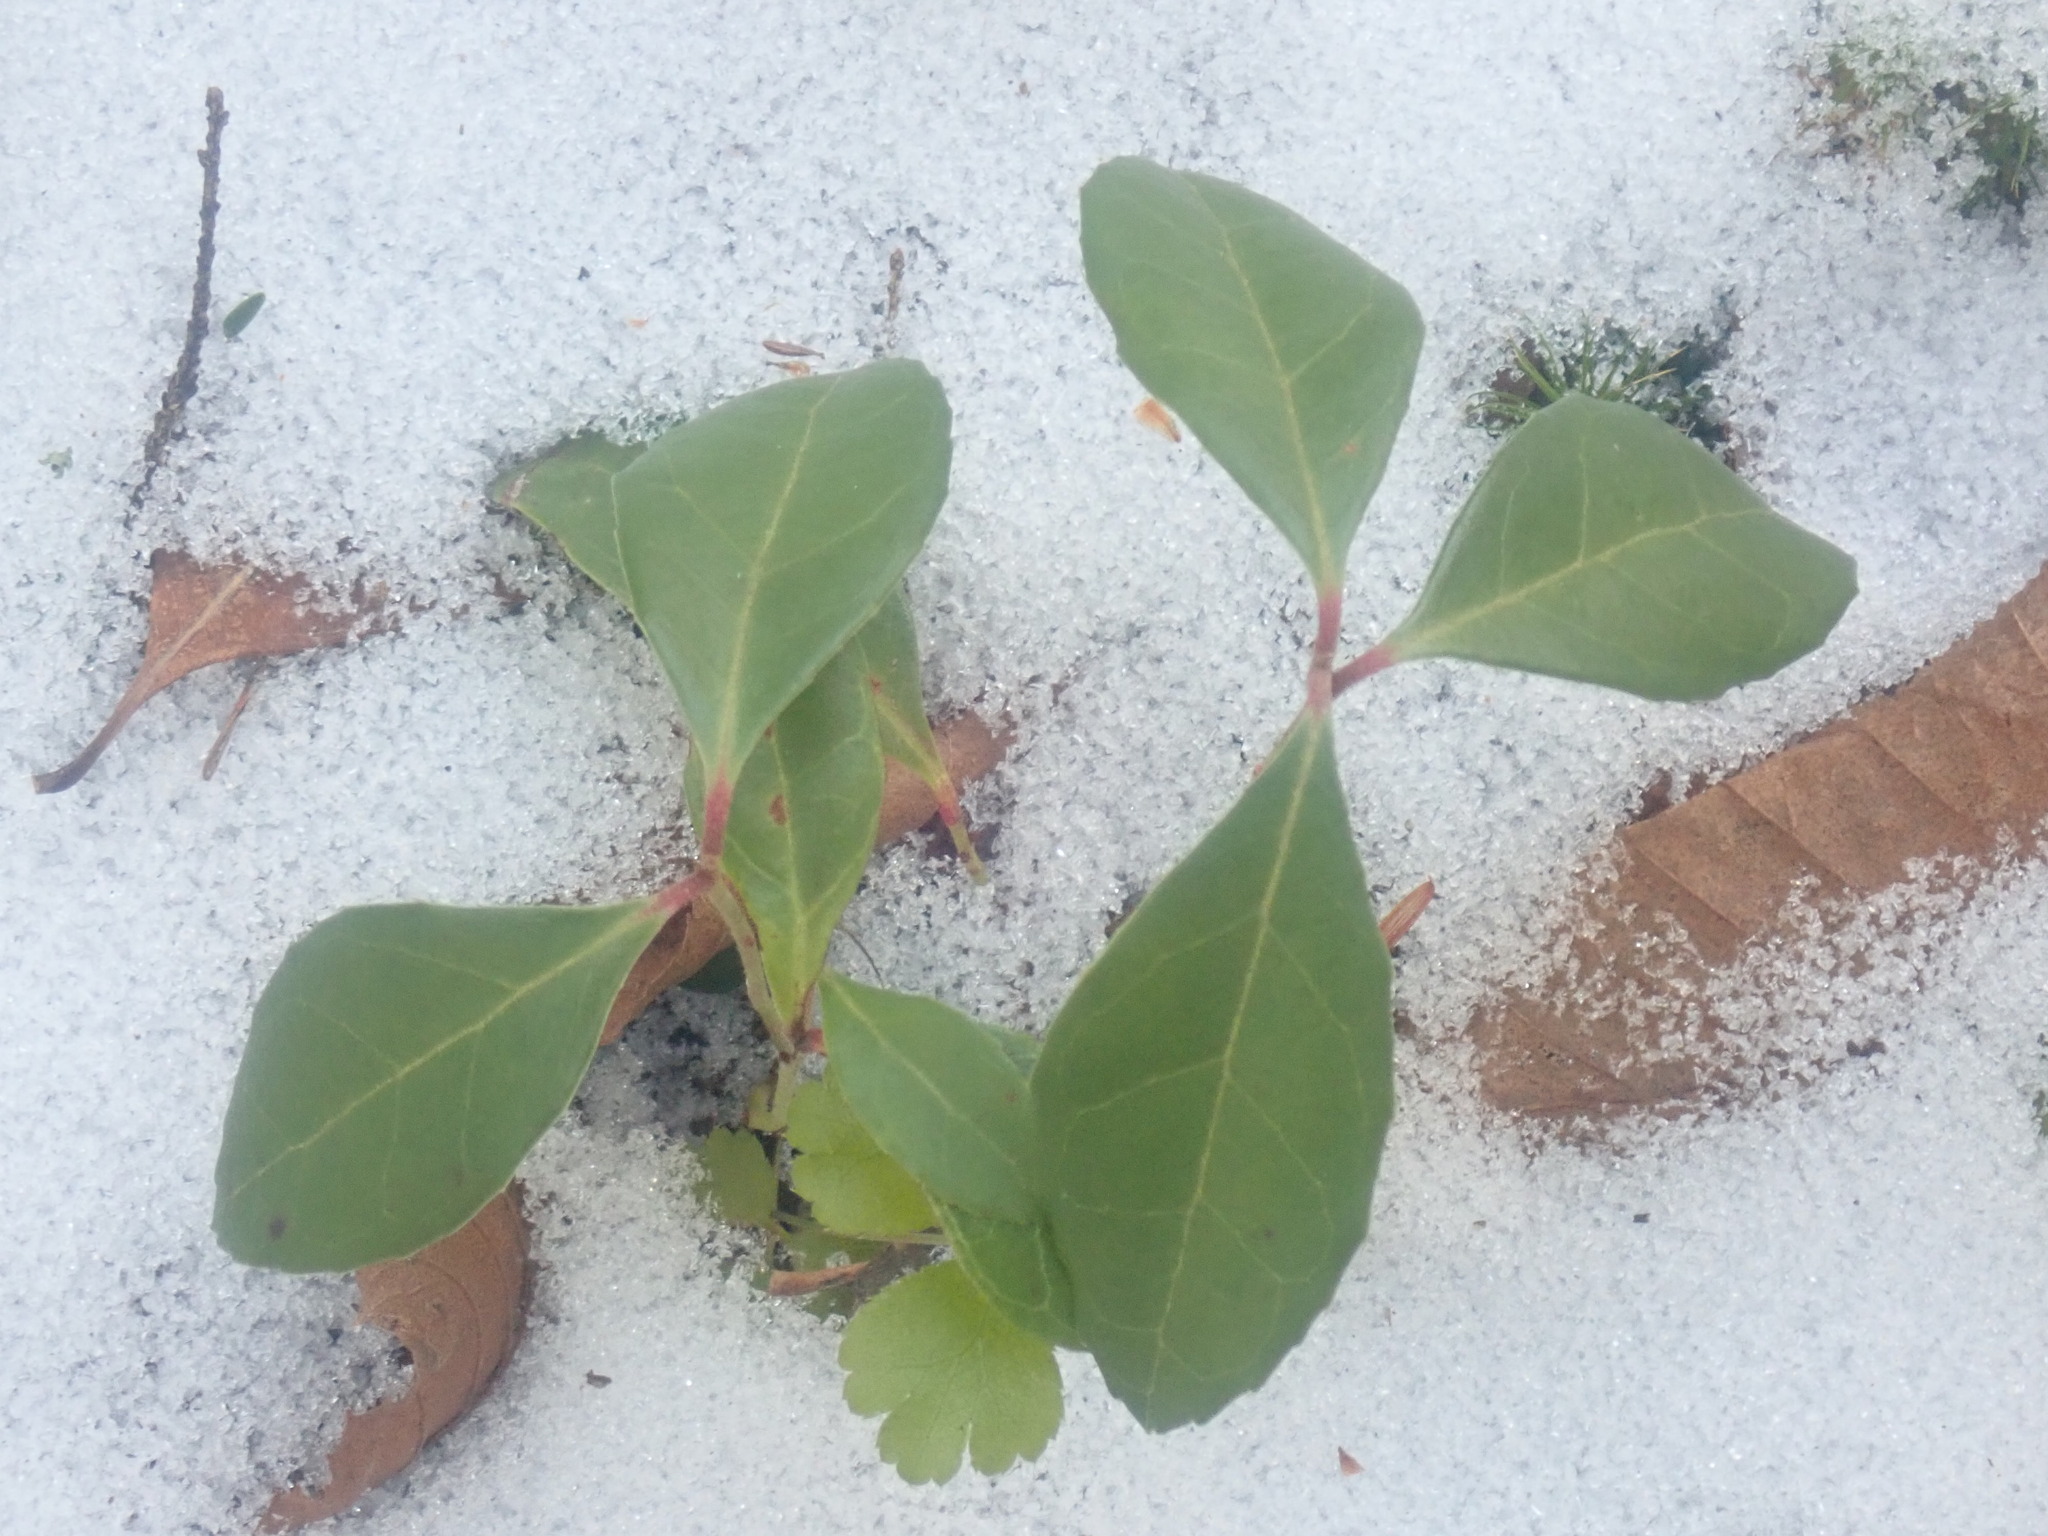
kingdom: Plantae
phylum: Tracheophyta
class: Magnoliopsida
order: Ericales
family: Ericaceae
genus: Gaultheria
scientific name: Gaultheria procumbens
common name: Checkerberry
